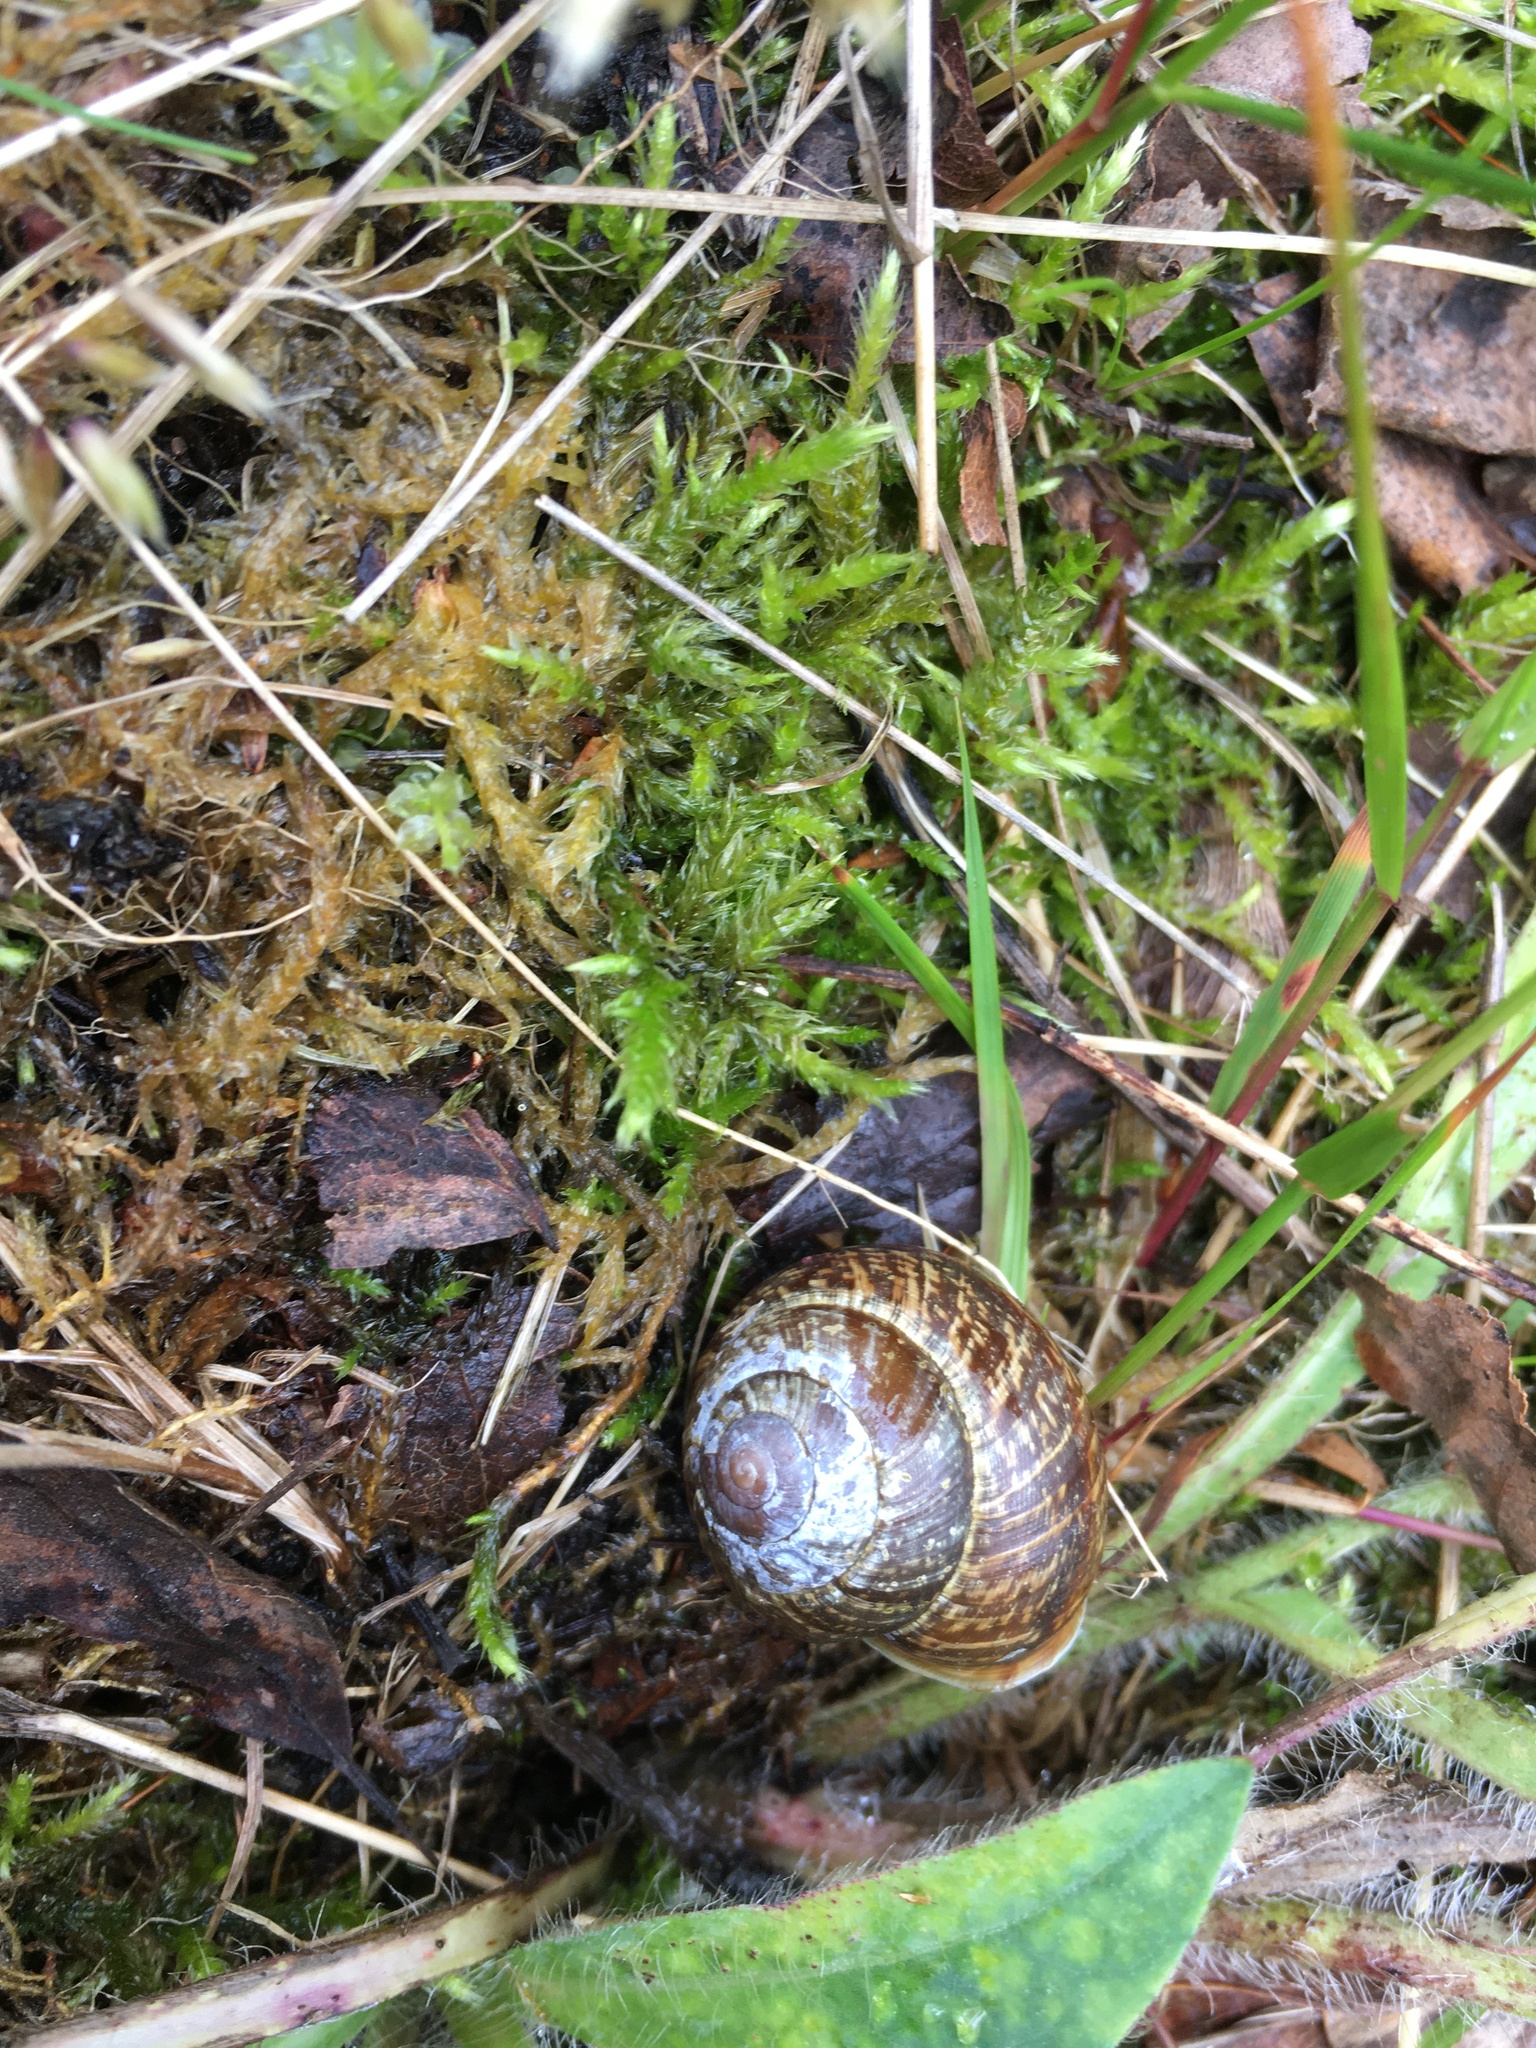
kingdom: Animalia
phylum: Mollusca
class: Gastropoda
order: Stylommatophora
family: Helicidae
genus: Arianta
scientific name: Arianta arbustorum
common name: Copse snail
